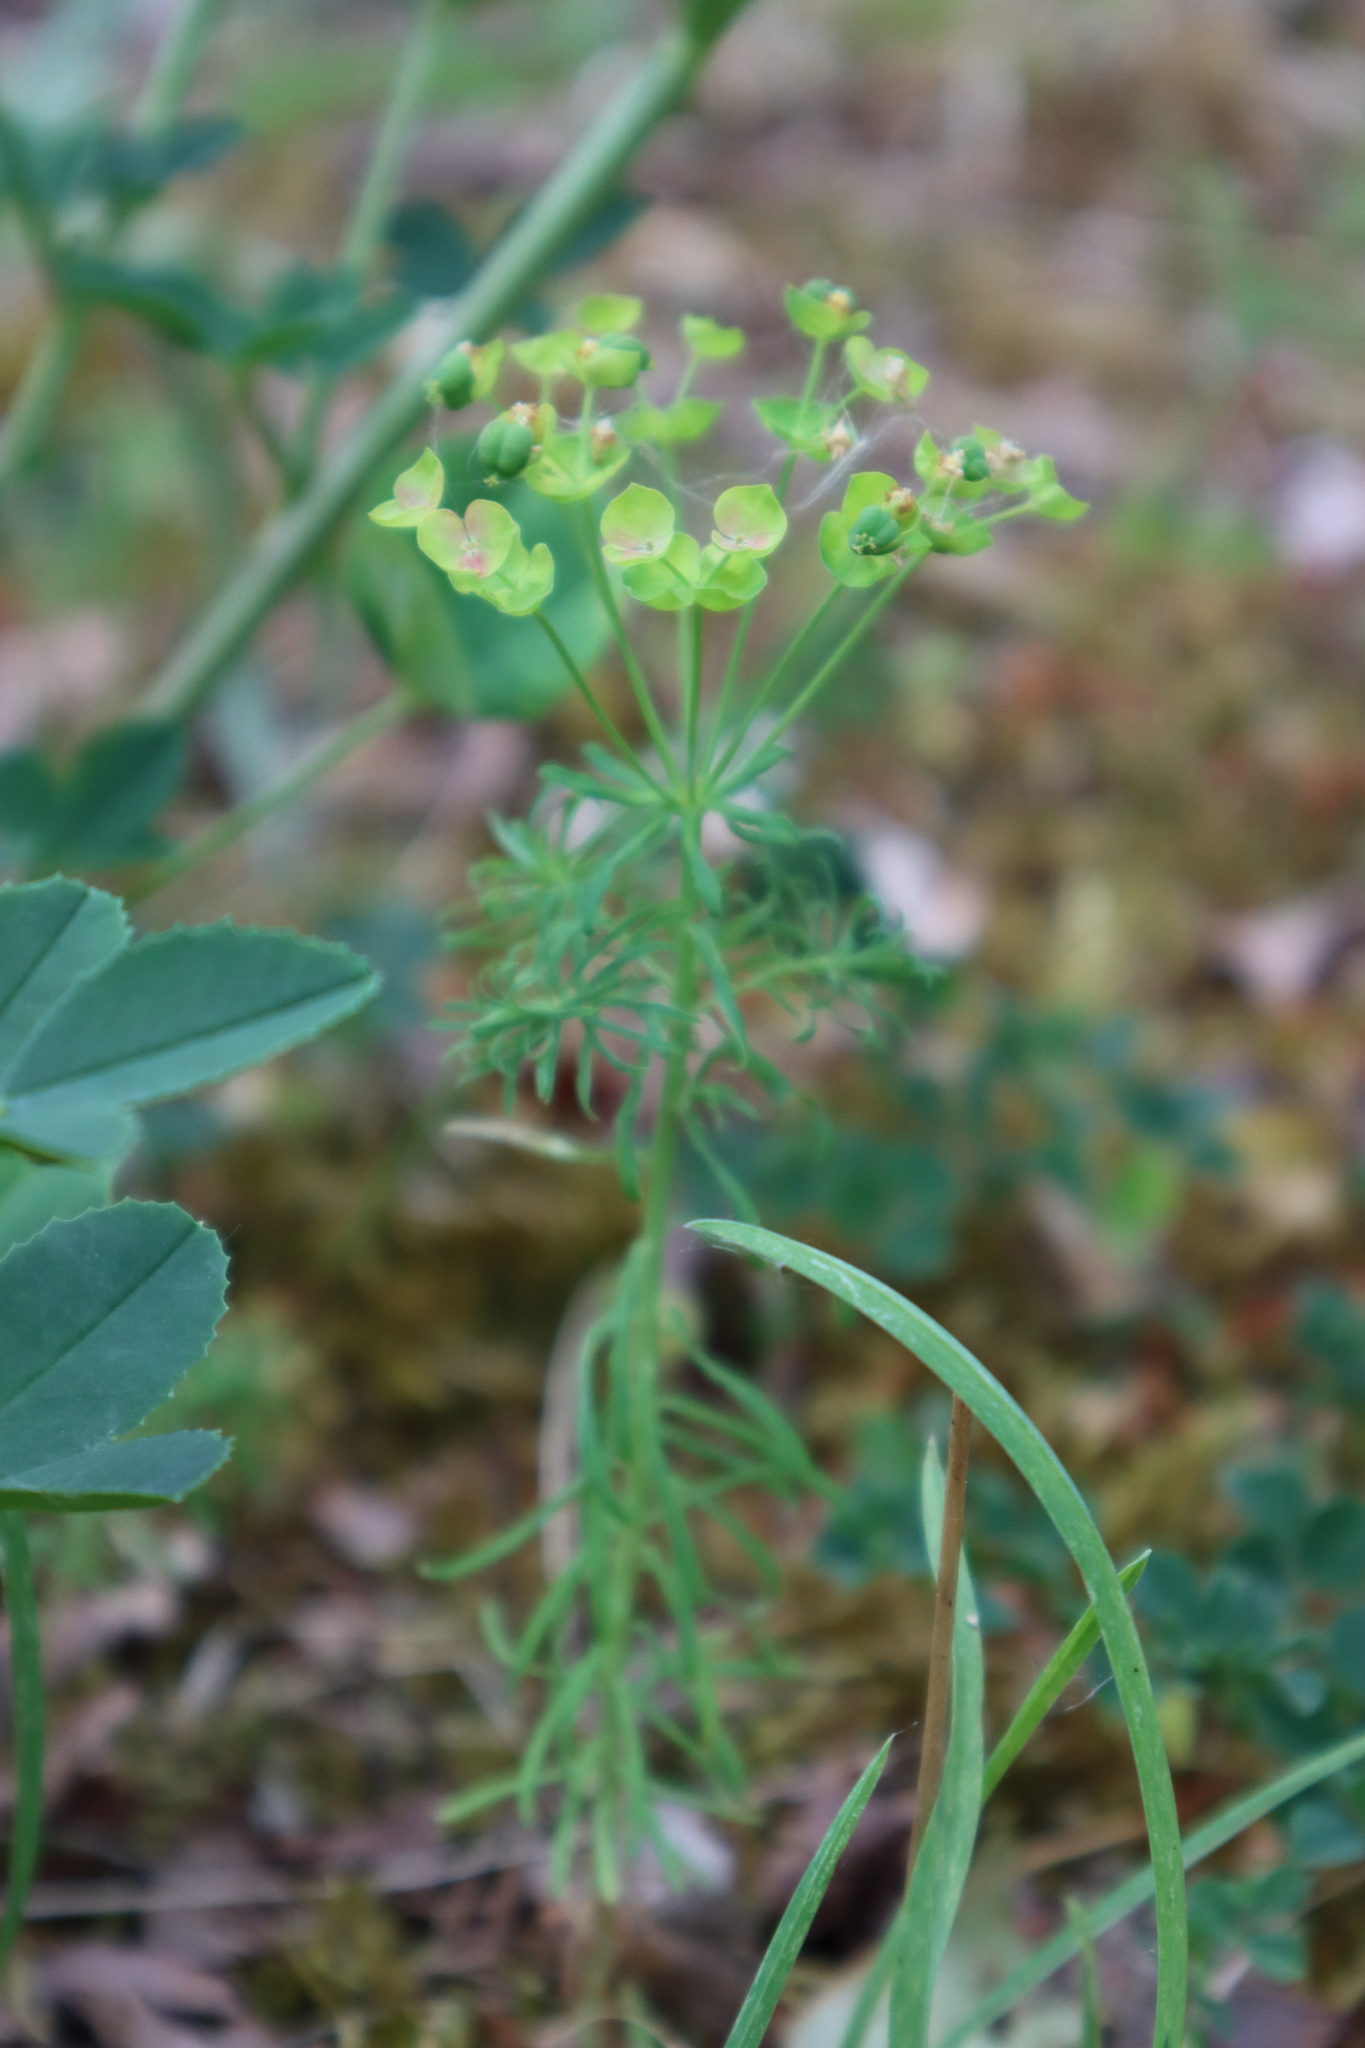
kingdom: Plantae
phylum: Tracheophyta
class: Magnoliopsida
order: Malpighiales
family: Euphorbiaceae
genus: Euphorbia
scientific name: Euphorbia cyparissias
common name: Cypress spurge
